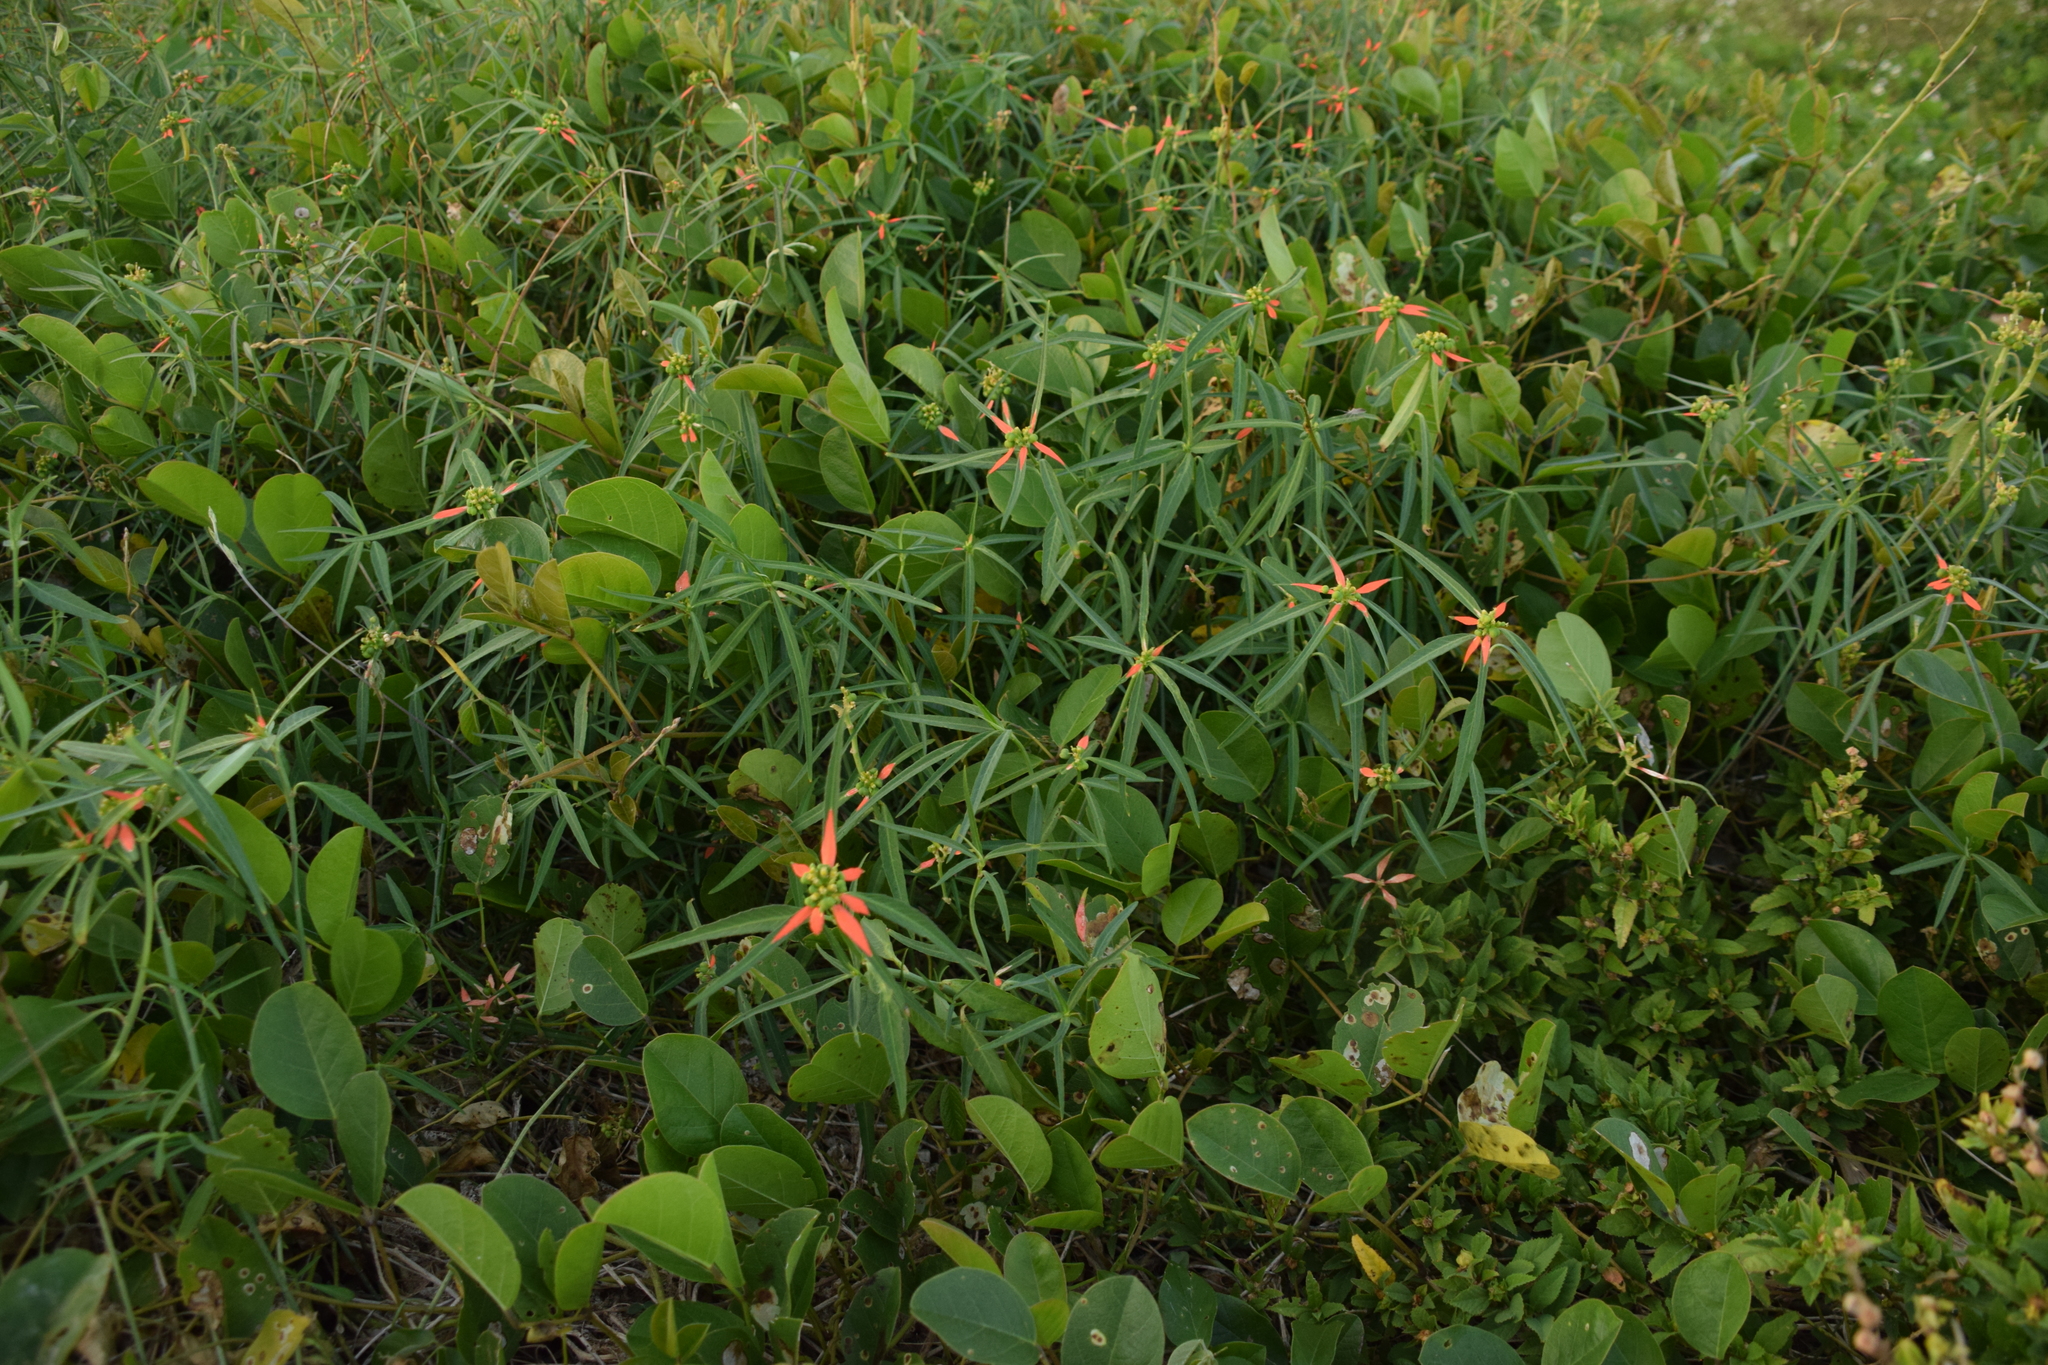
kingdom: Plantae
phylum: Tracheophyta
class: Magnoliopsida
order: Malpighiales
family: Euphorbiaceae
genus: Euphorbia
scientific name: Euphorbia heterophylla
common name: Mexican fireplant
